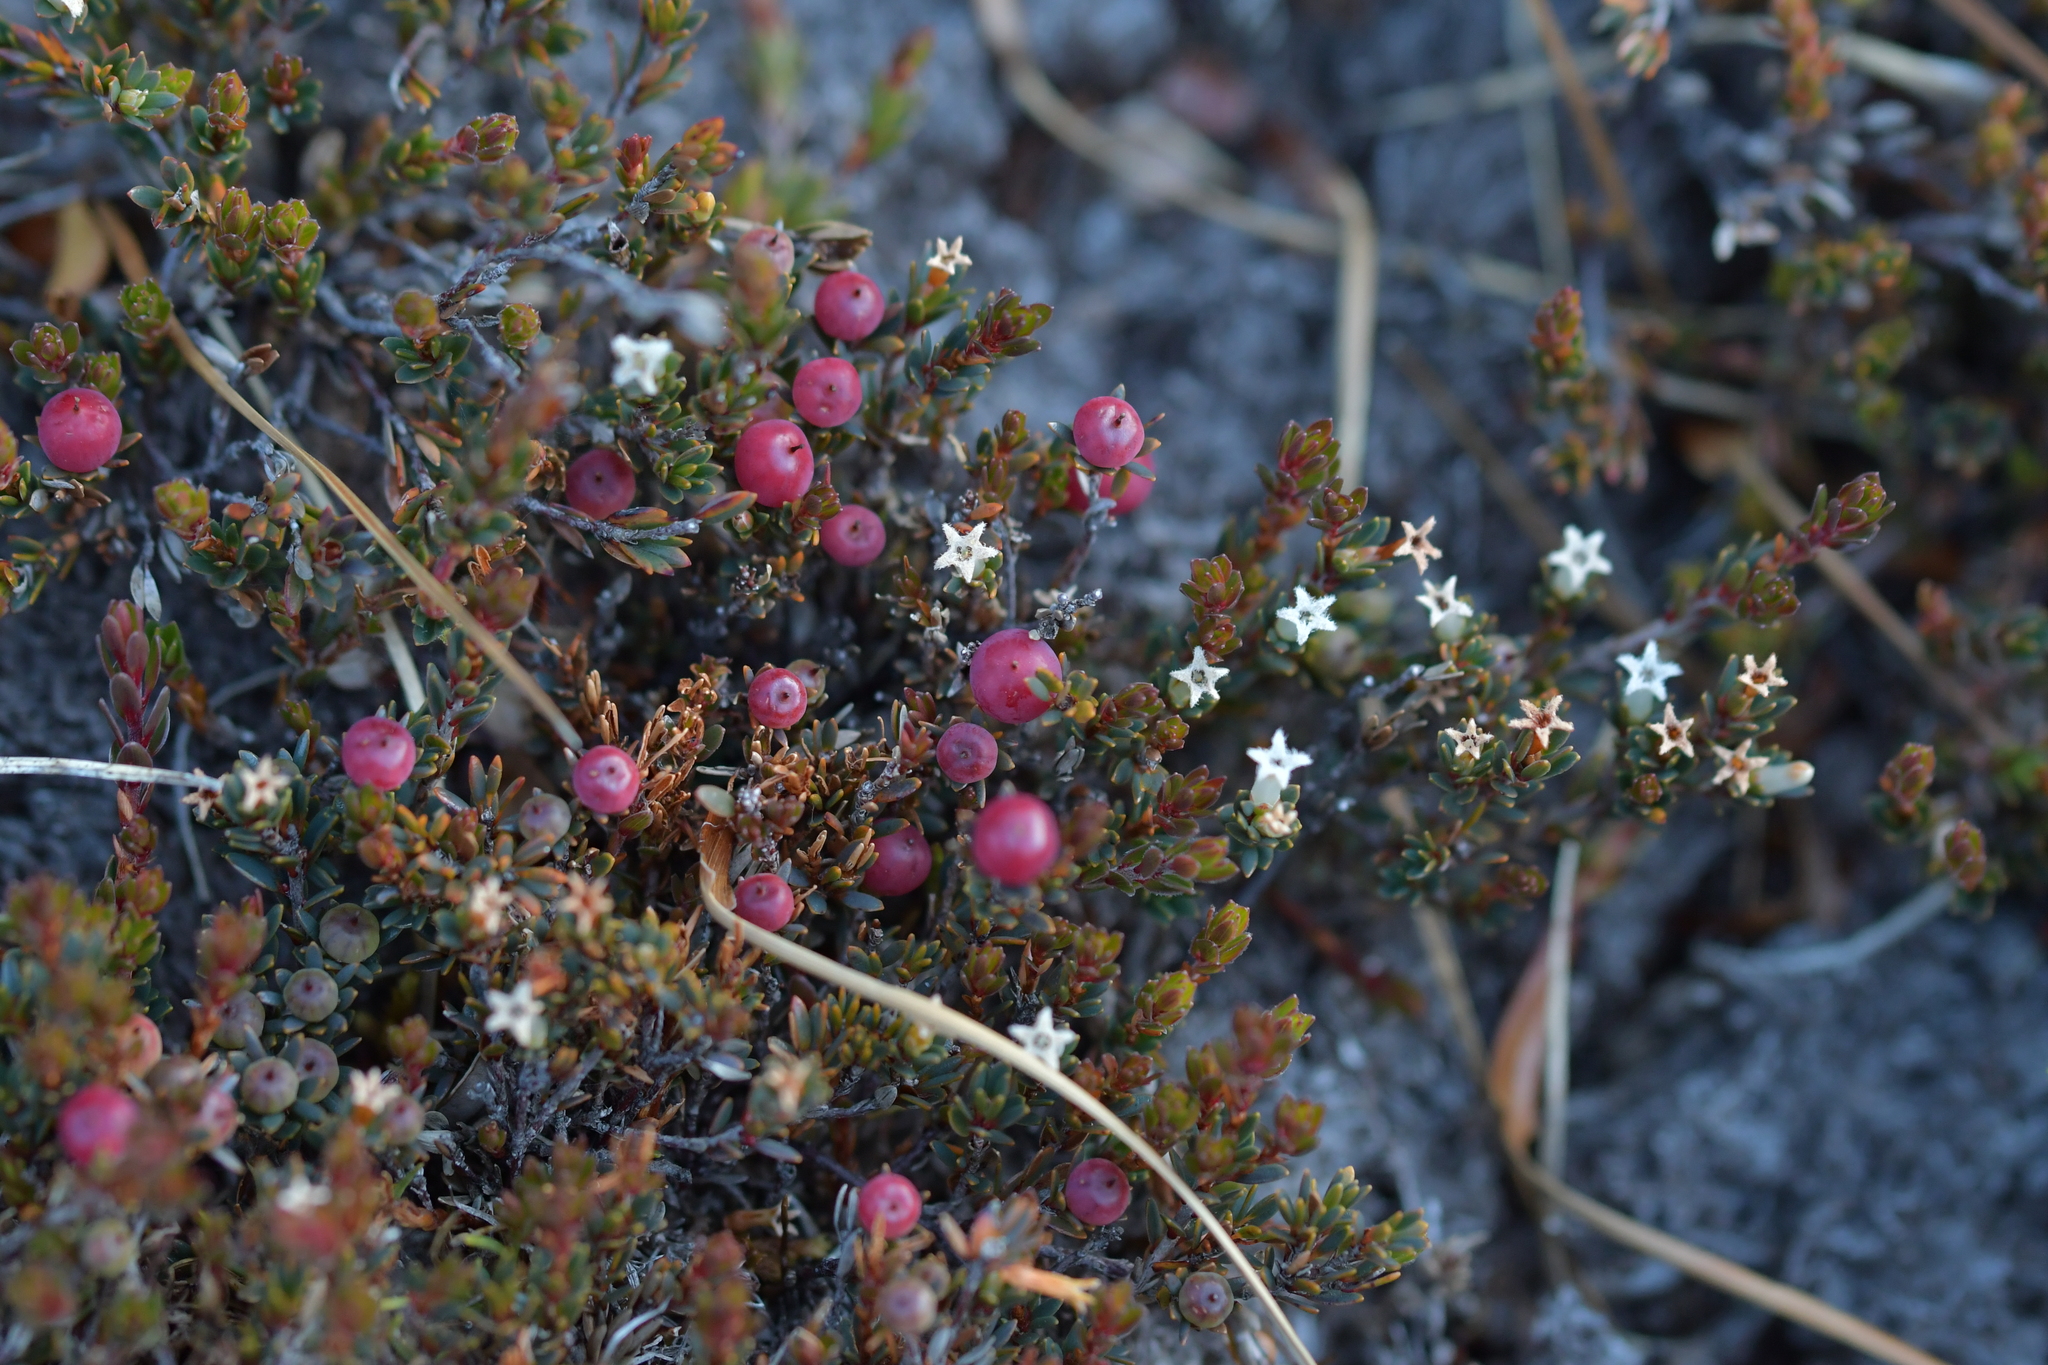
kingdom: Plantae
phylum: Tracheophyta
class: Magnoliopsida
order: Ericales
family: Ericaceae
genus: Pentachondra
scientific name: Pentachondra pumila
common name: Carpet-heath
